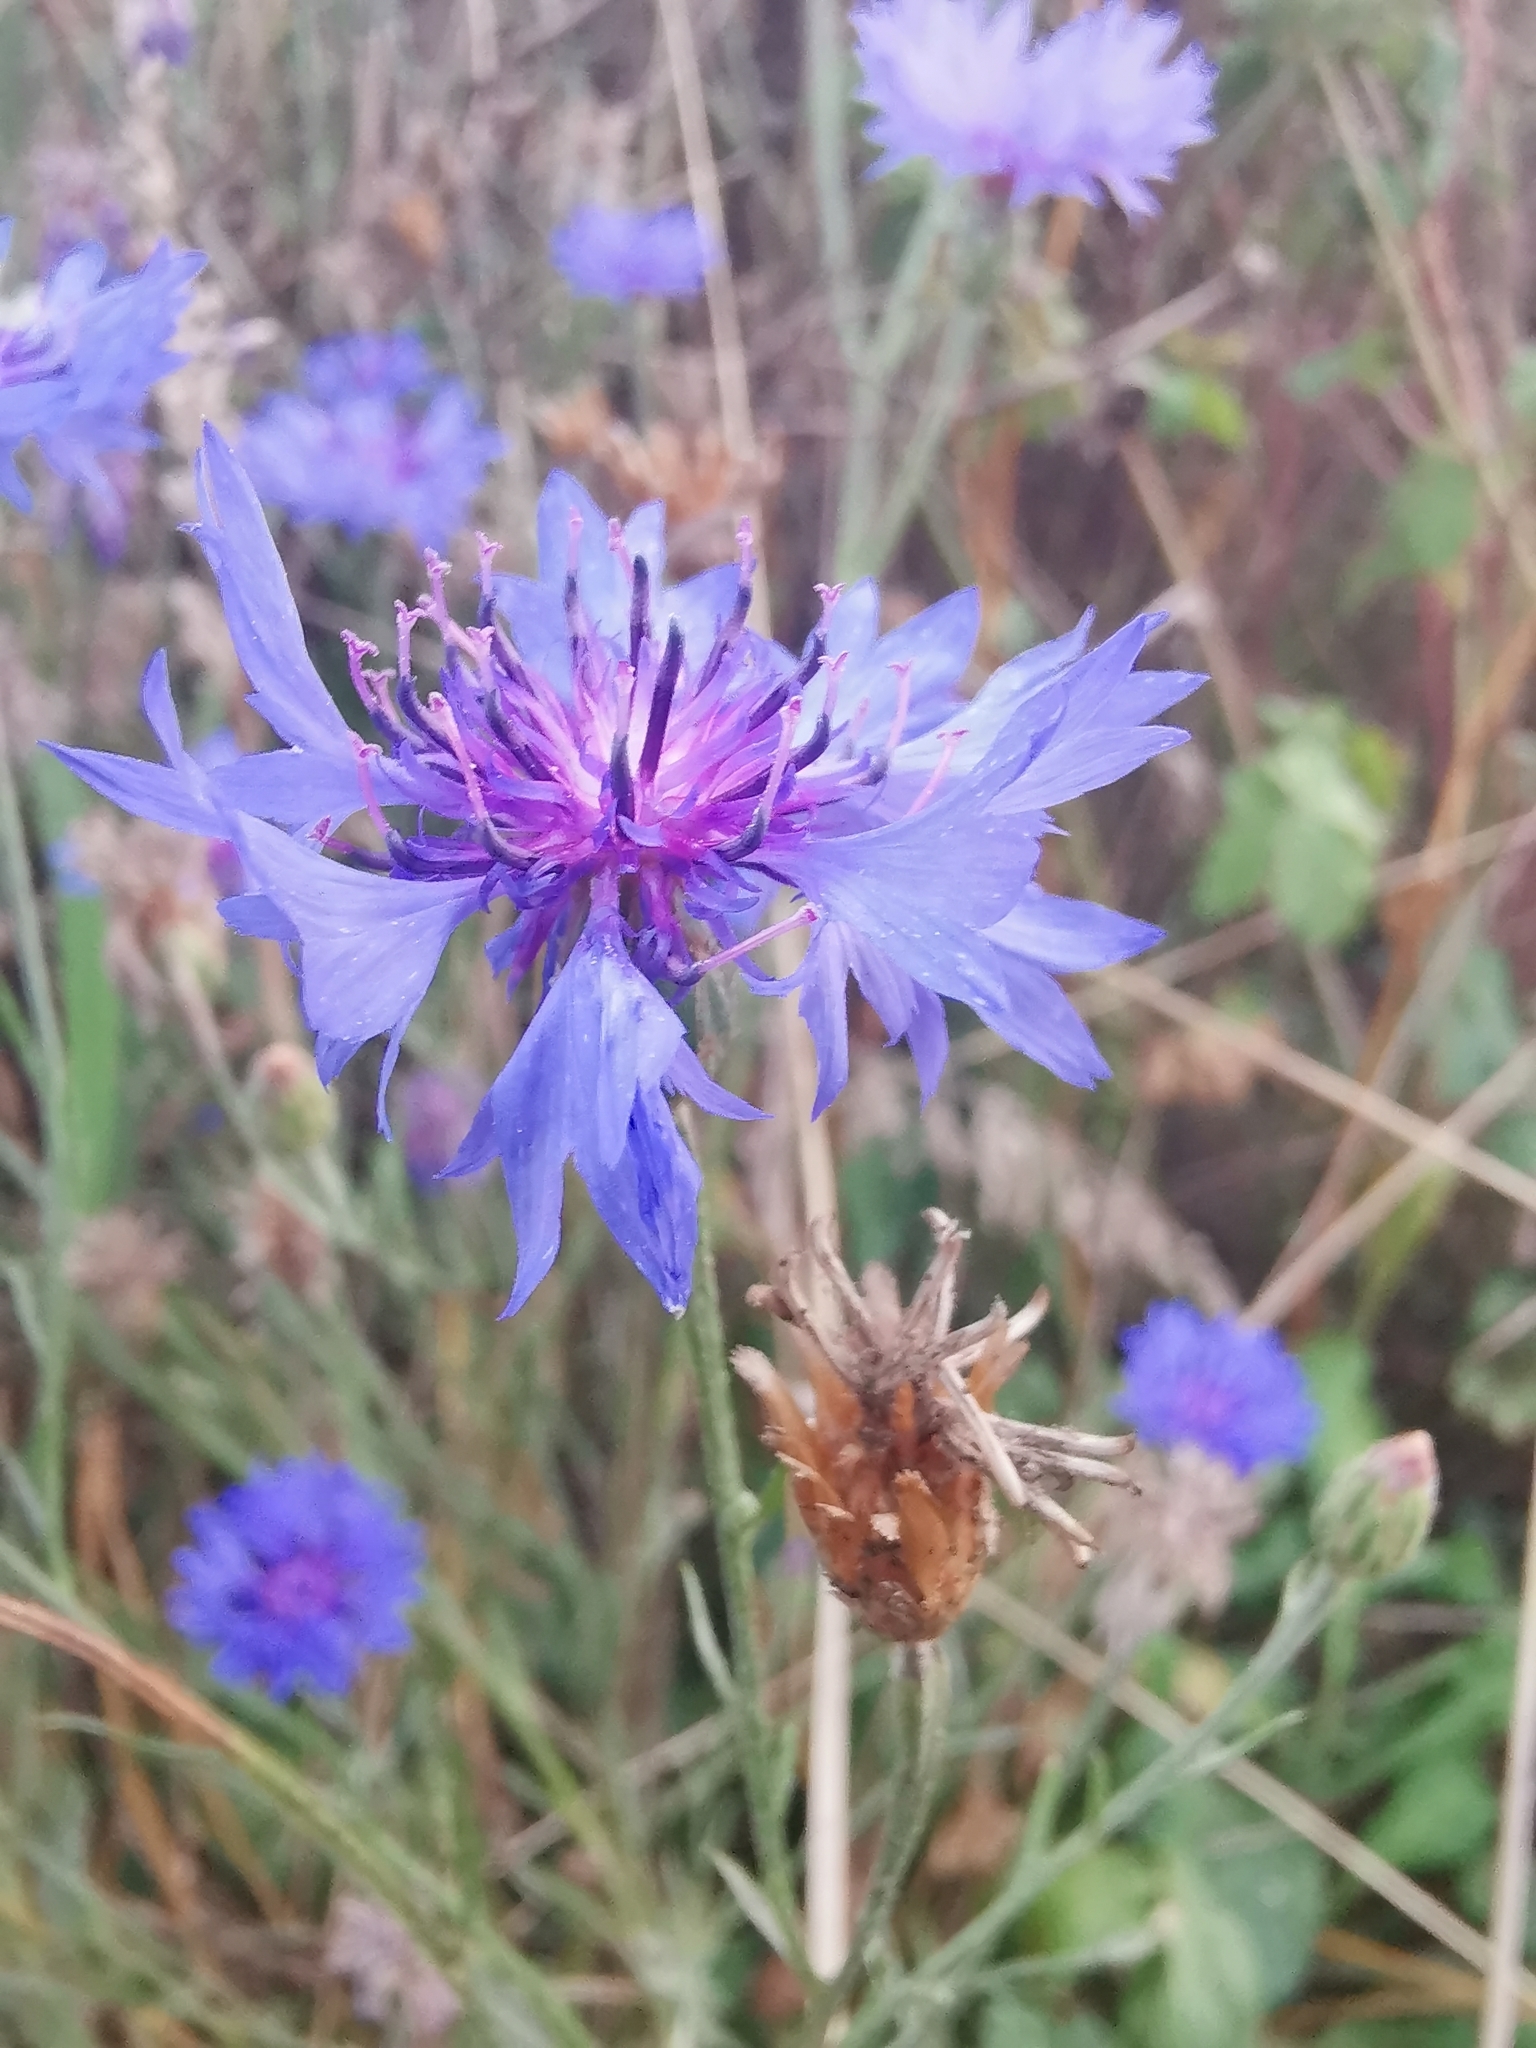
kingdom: Plantae
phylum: Tracheophyta
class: Magnoliopsida
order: Asterales
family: Asteraceae
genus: Centaurea
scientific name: Centaurea cyanus
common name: Cornflower
